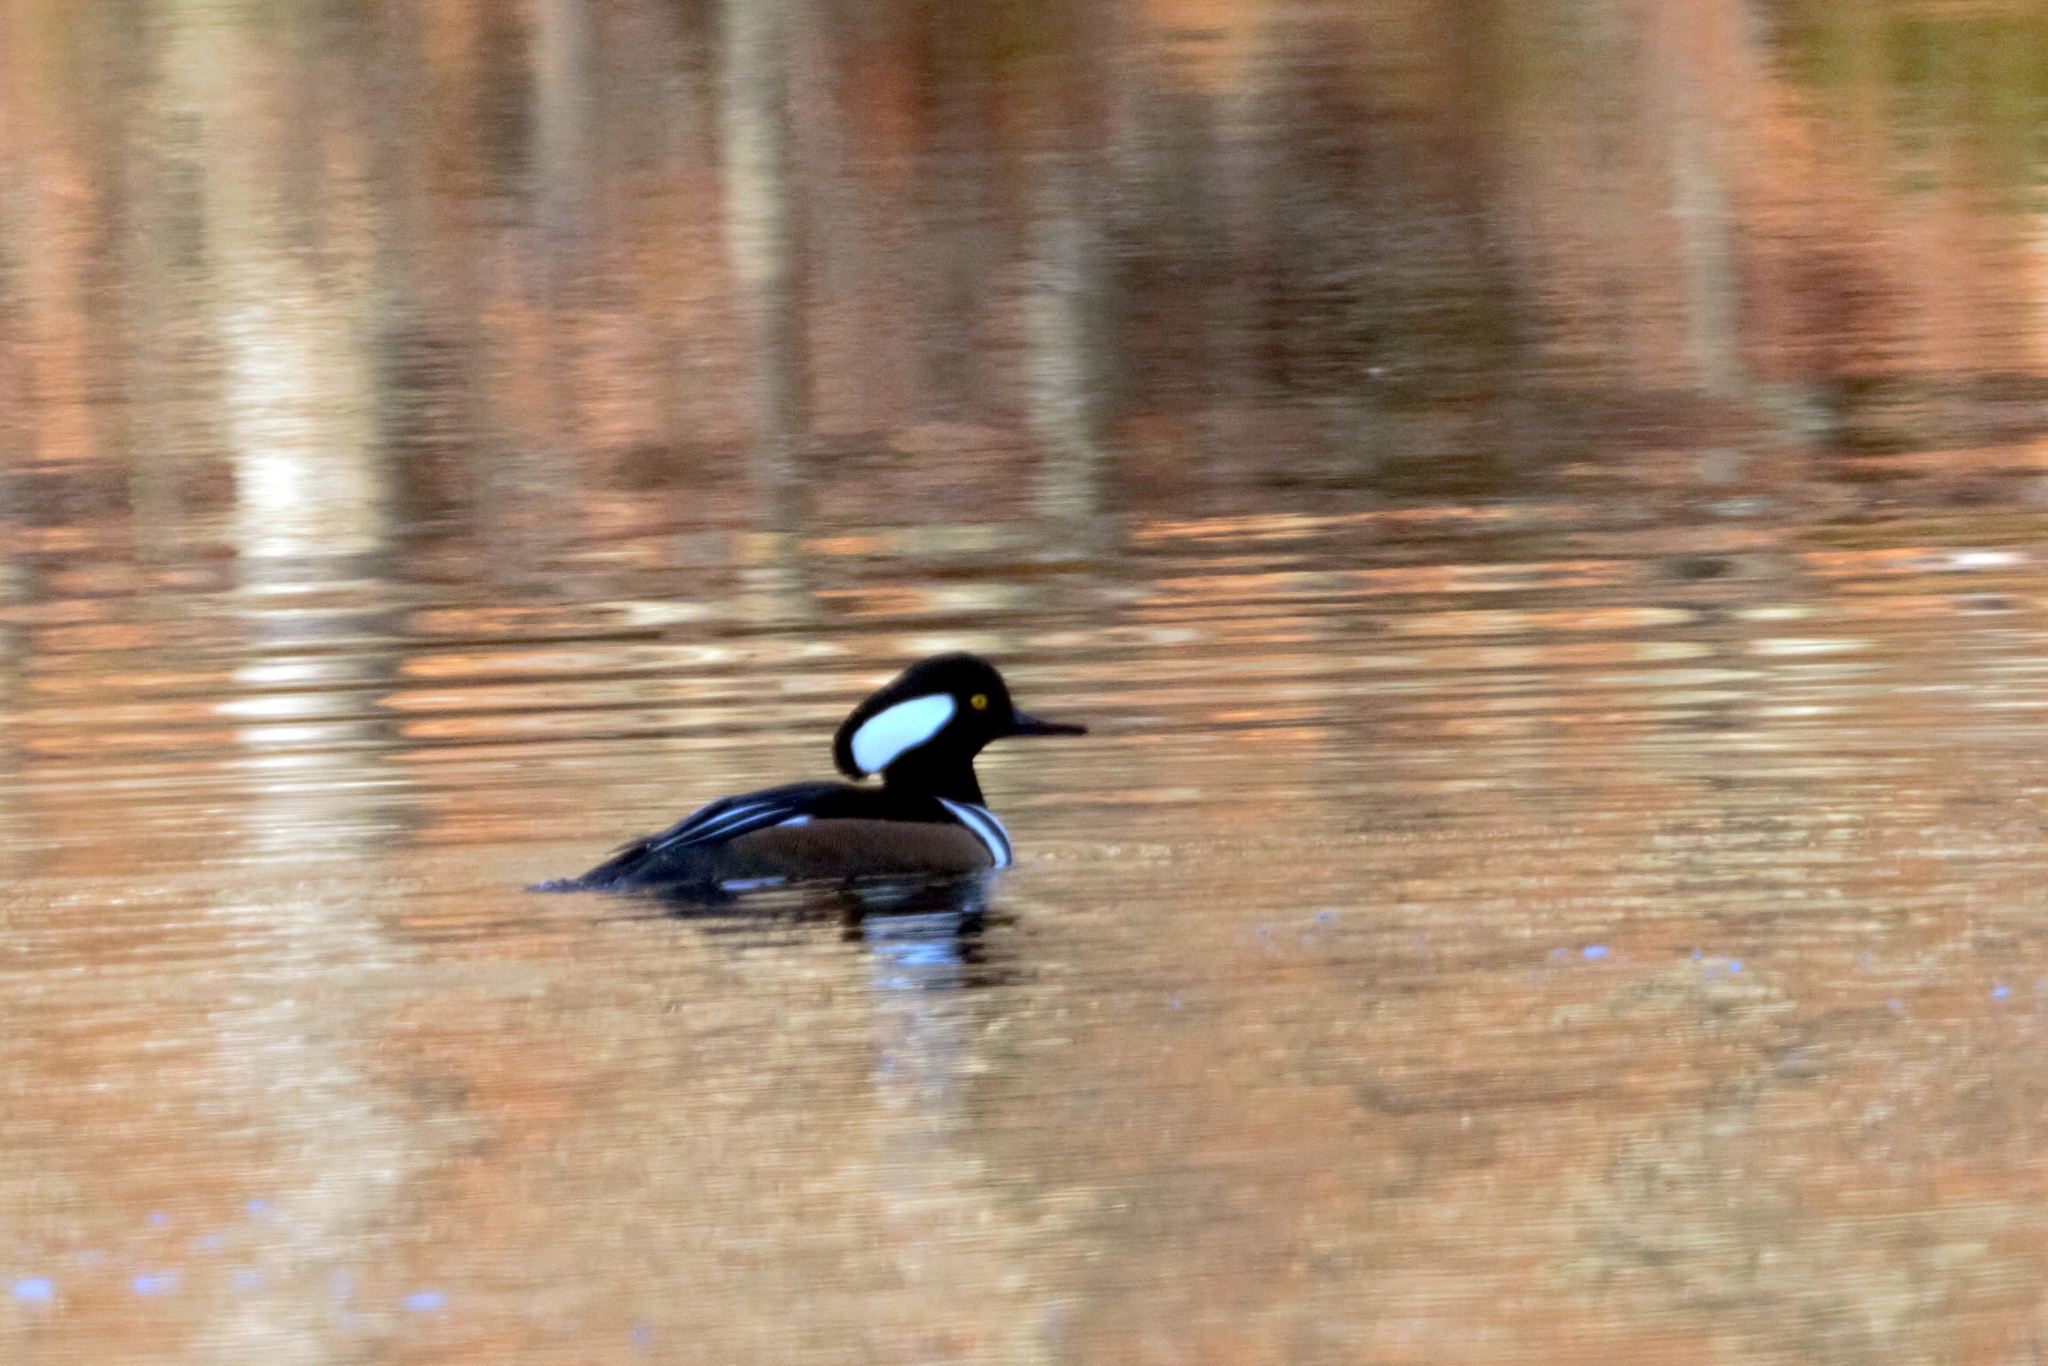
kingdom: Animalia
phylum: Chordata
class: Aves
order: Anseriformes
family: Anatidae
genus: Lophodytes
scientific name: Lophodytes cucullatus
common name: Hooded merganser
